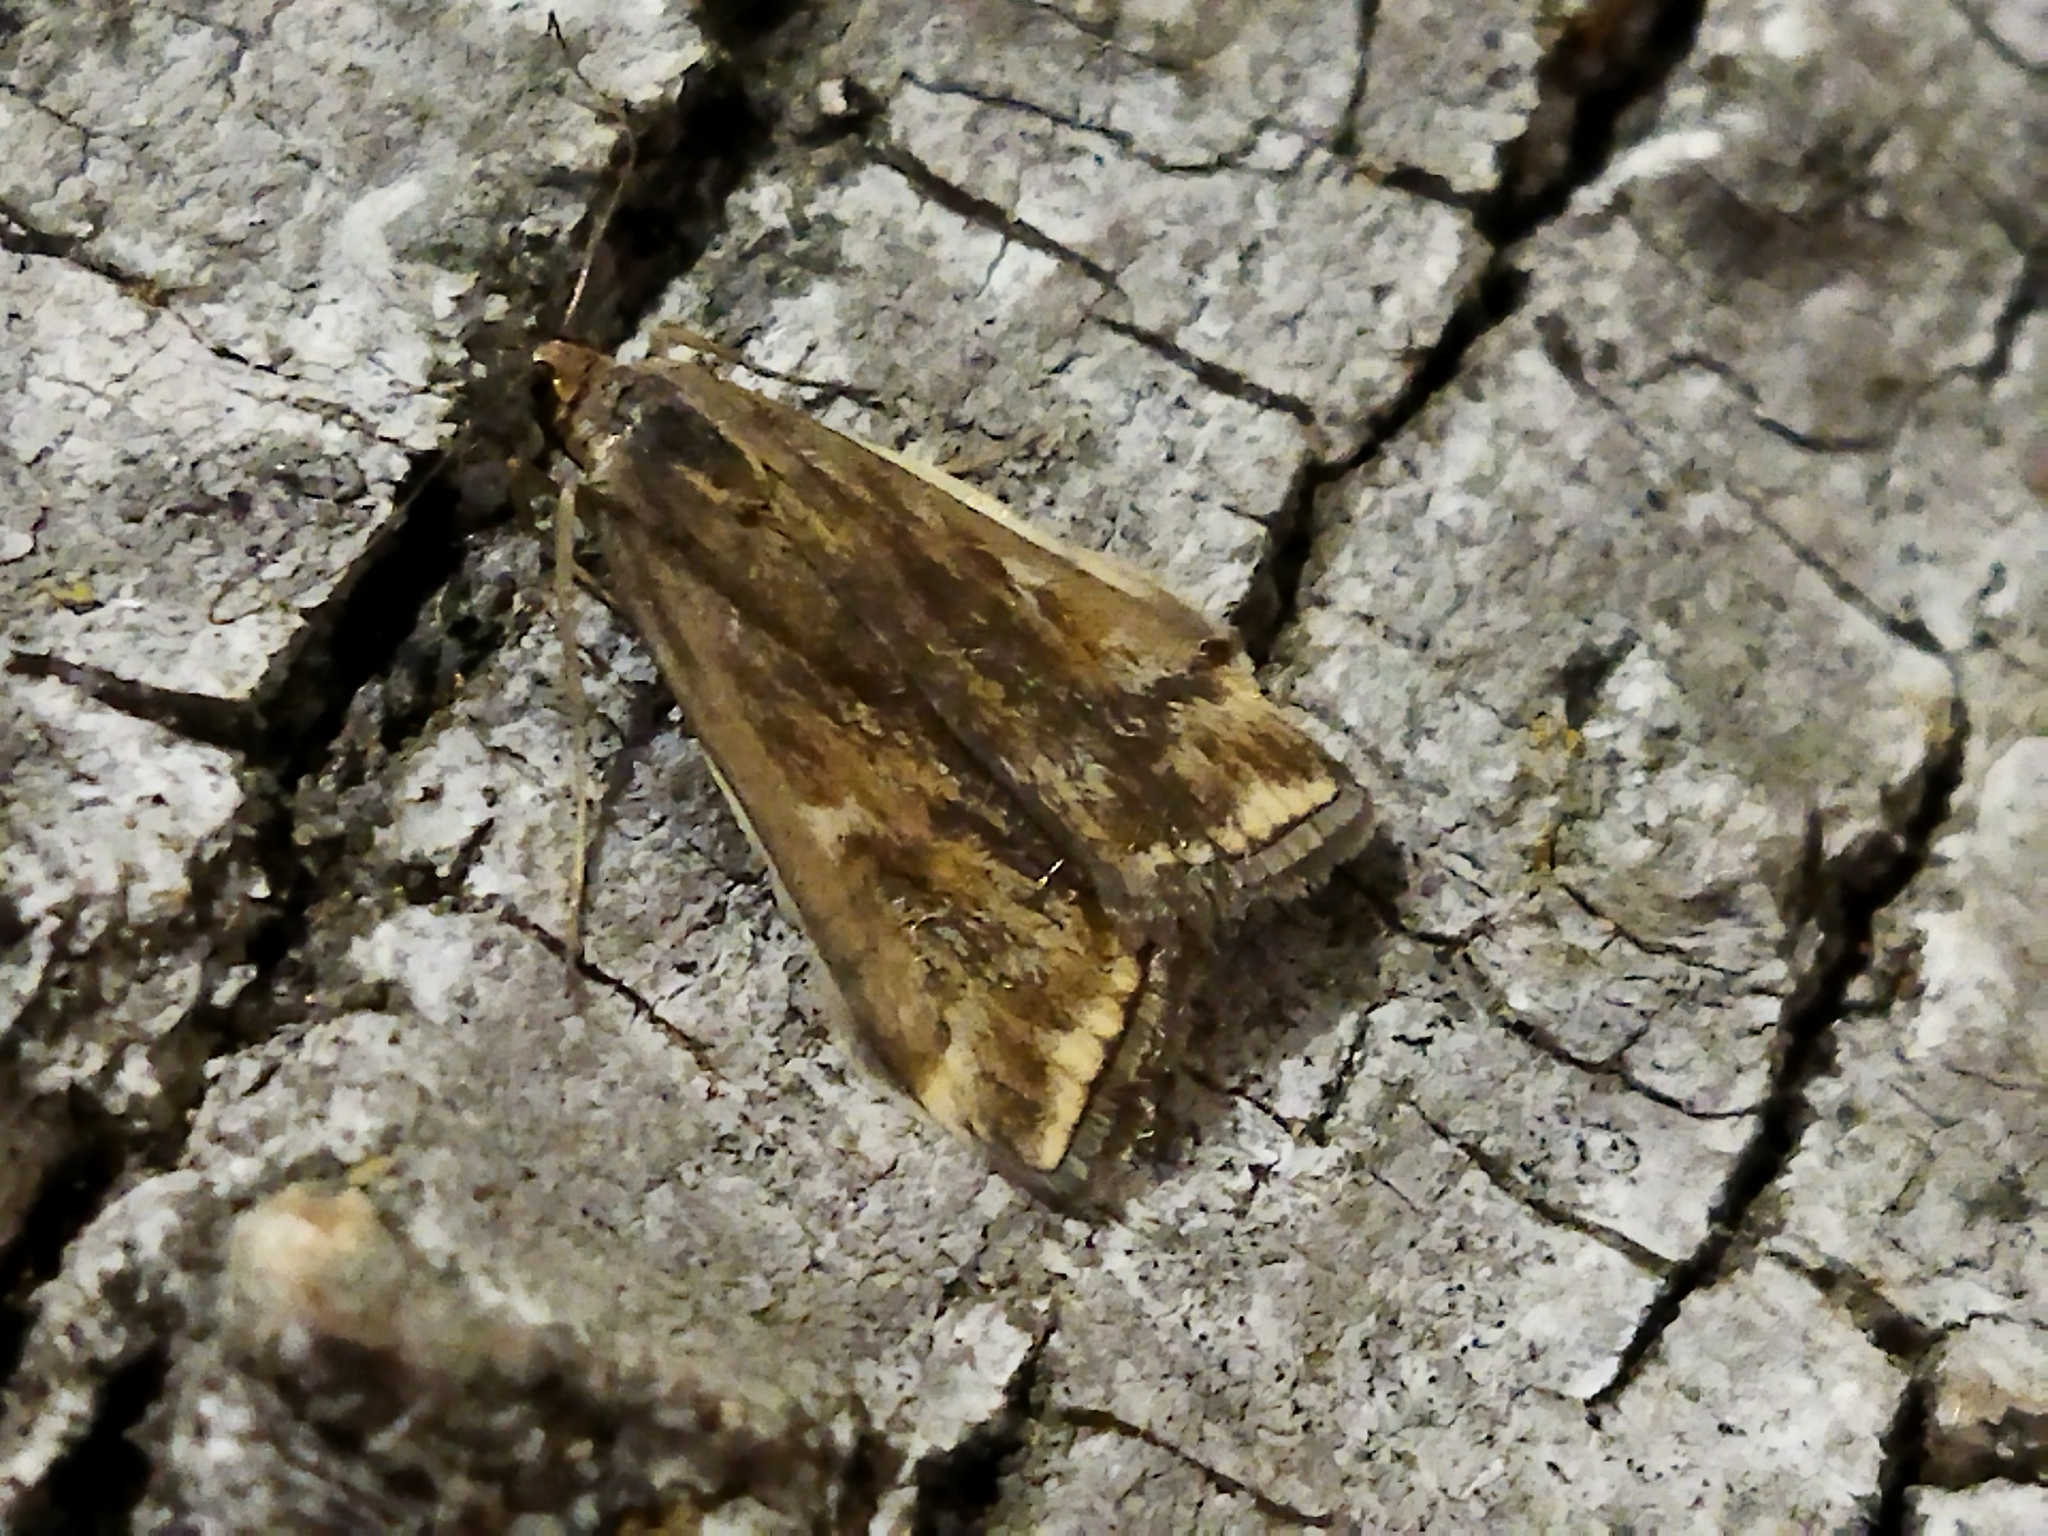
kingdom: Animalia
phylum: Arthropoda
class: Insecta
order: Lepidoptera
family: Crambidae
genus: Loxostege
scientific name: Loxostege sticticalis
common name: Crambid moth
